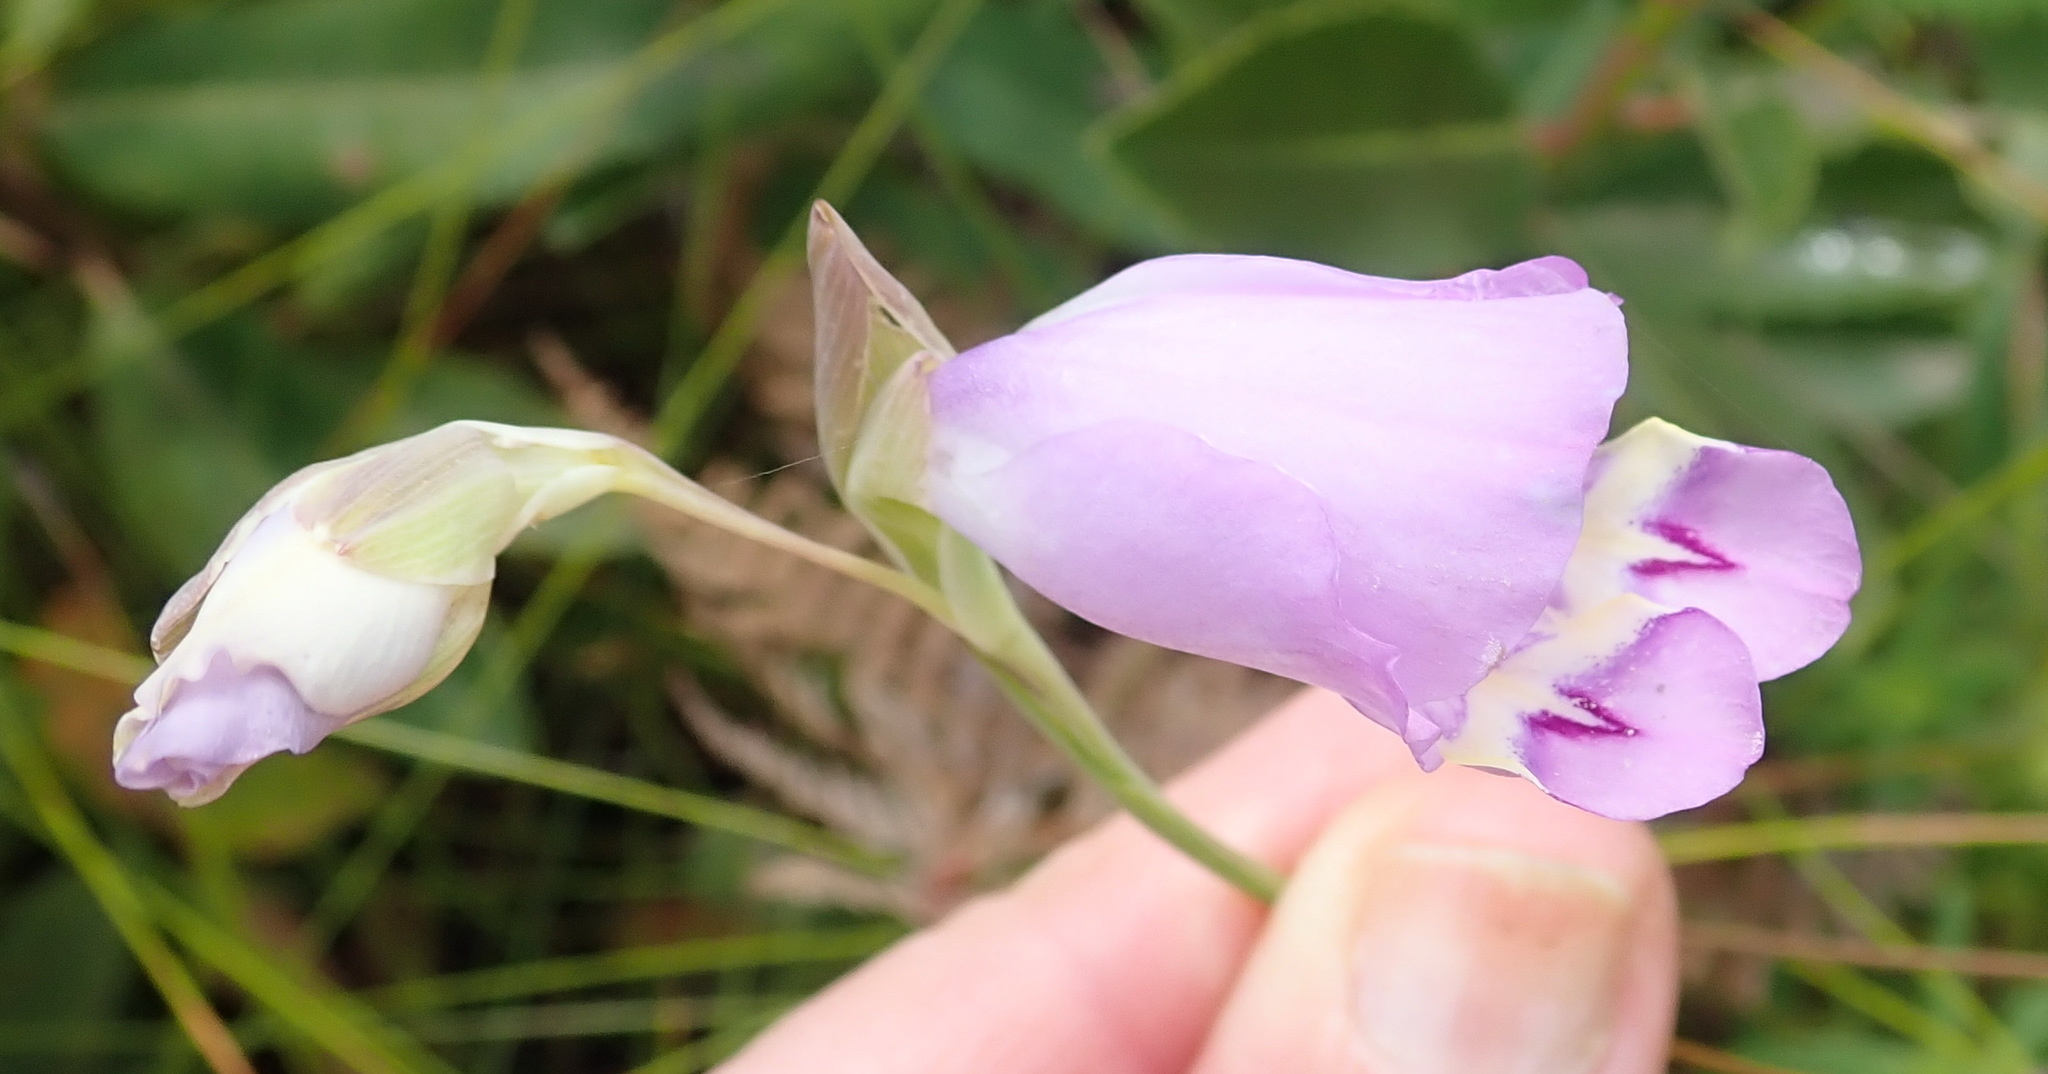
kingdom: Plantae
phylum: Tracheophyta
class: Liliopsida
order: Asparagales
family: Iridaceae
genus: Gladiolus
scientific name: Gladiolus rogersii
